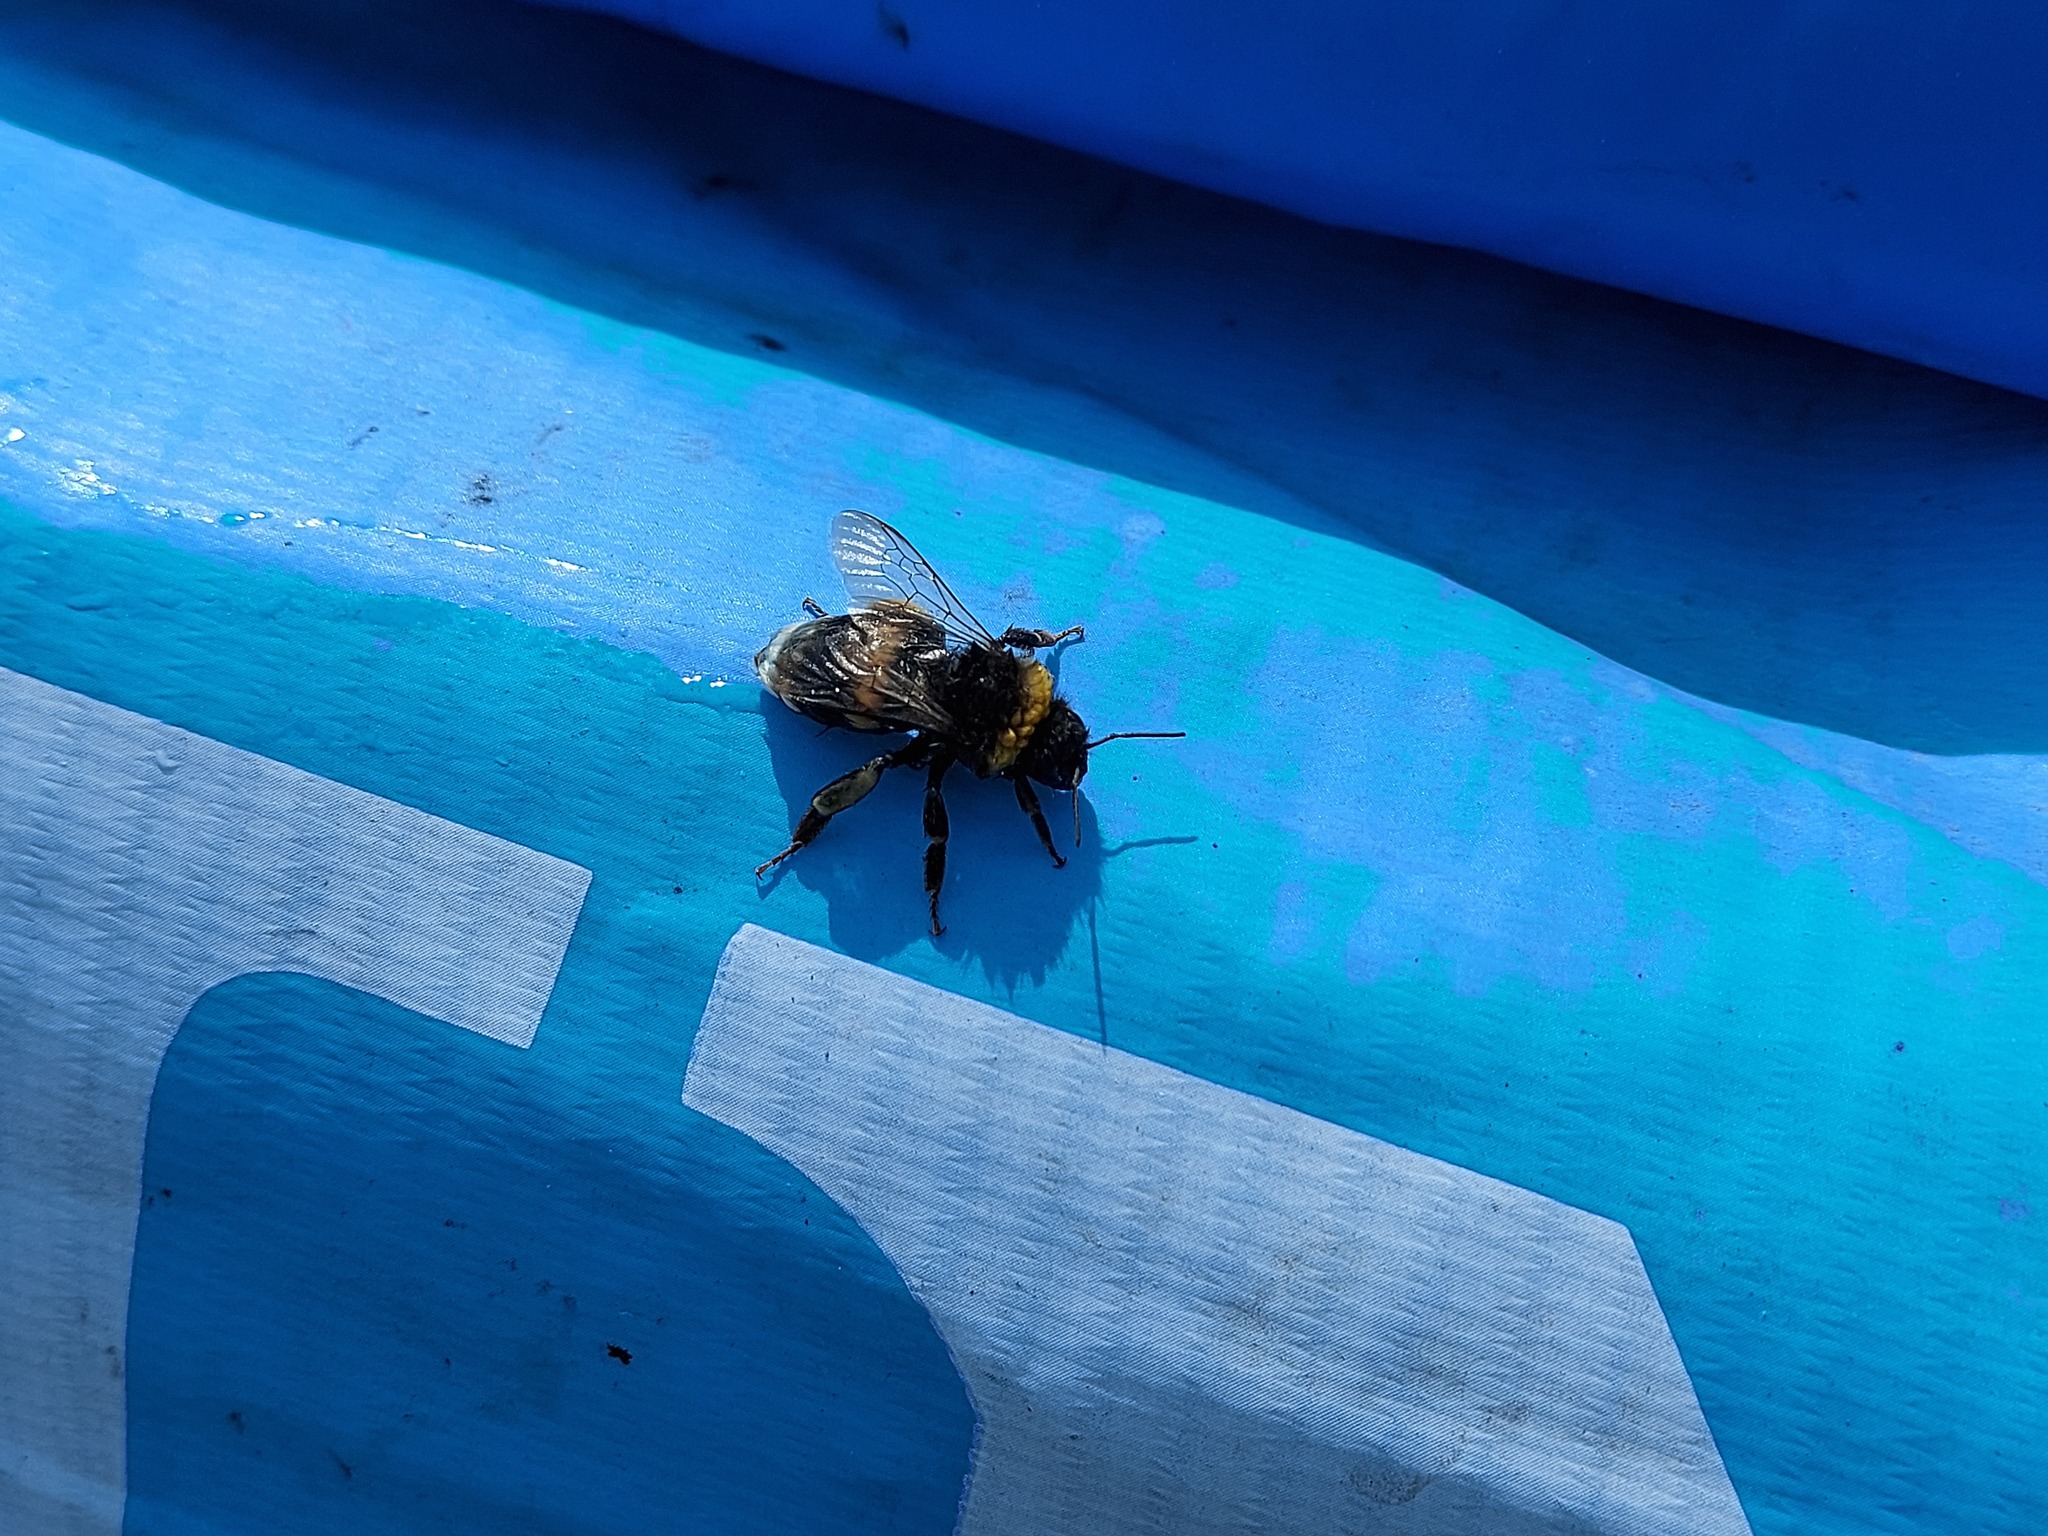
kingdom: Animalia
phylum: Arthropoda
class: Insecta
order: Hymenoptera
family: Apidae
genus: Bombus
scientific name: Bombus
